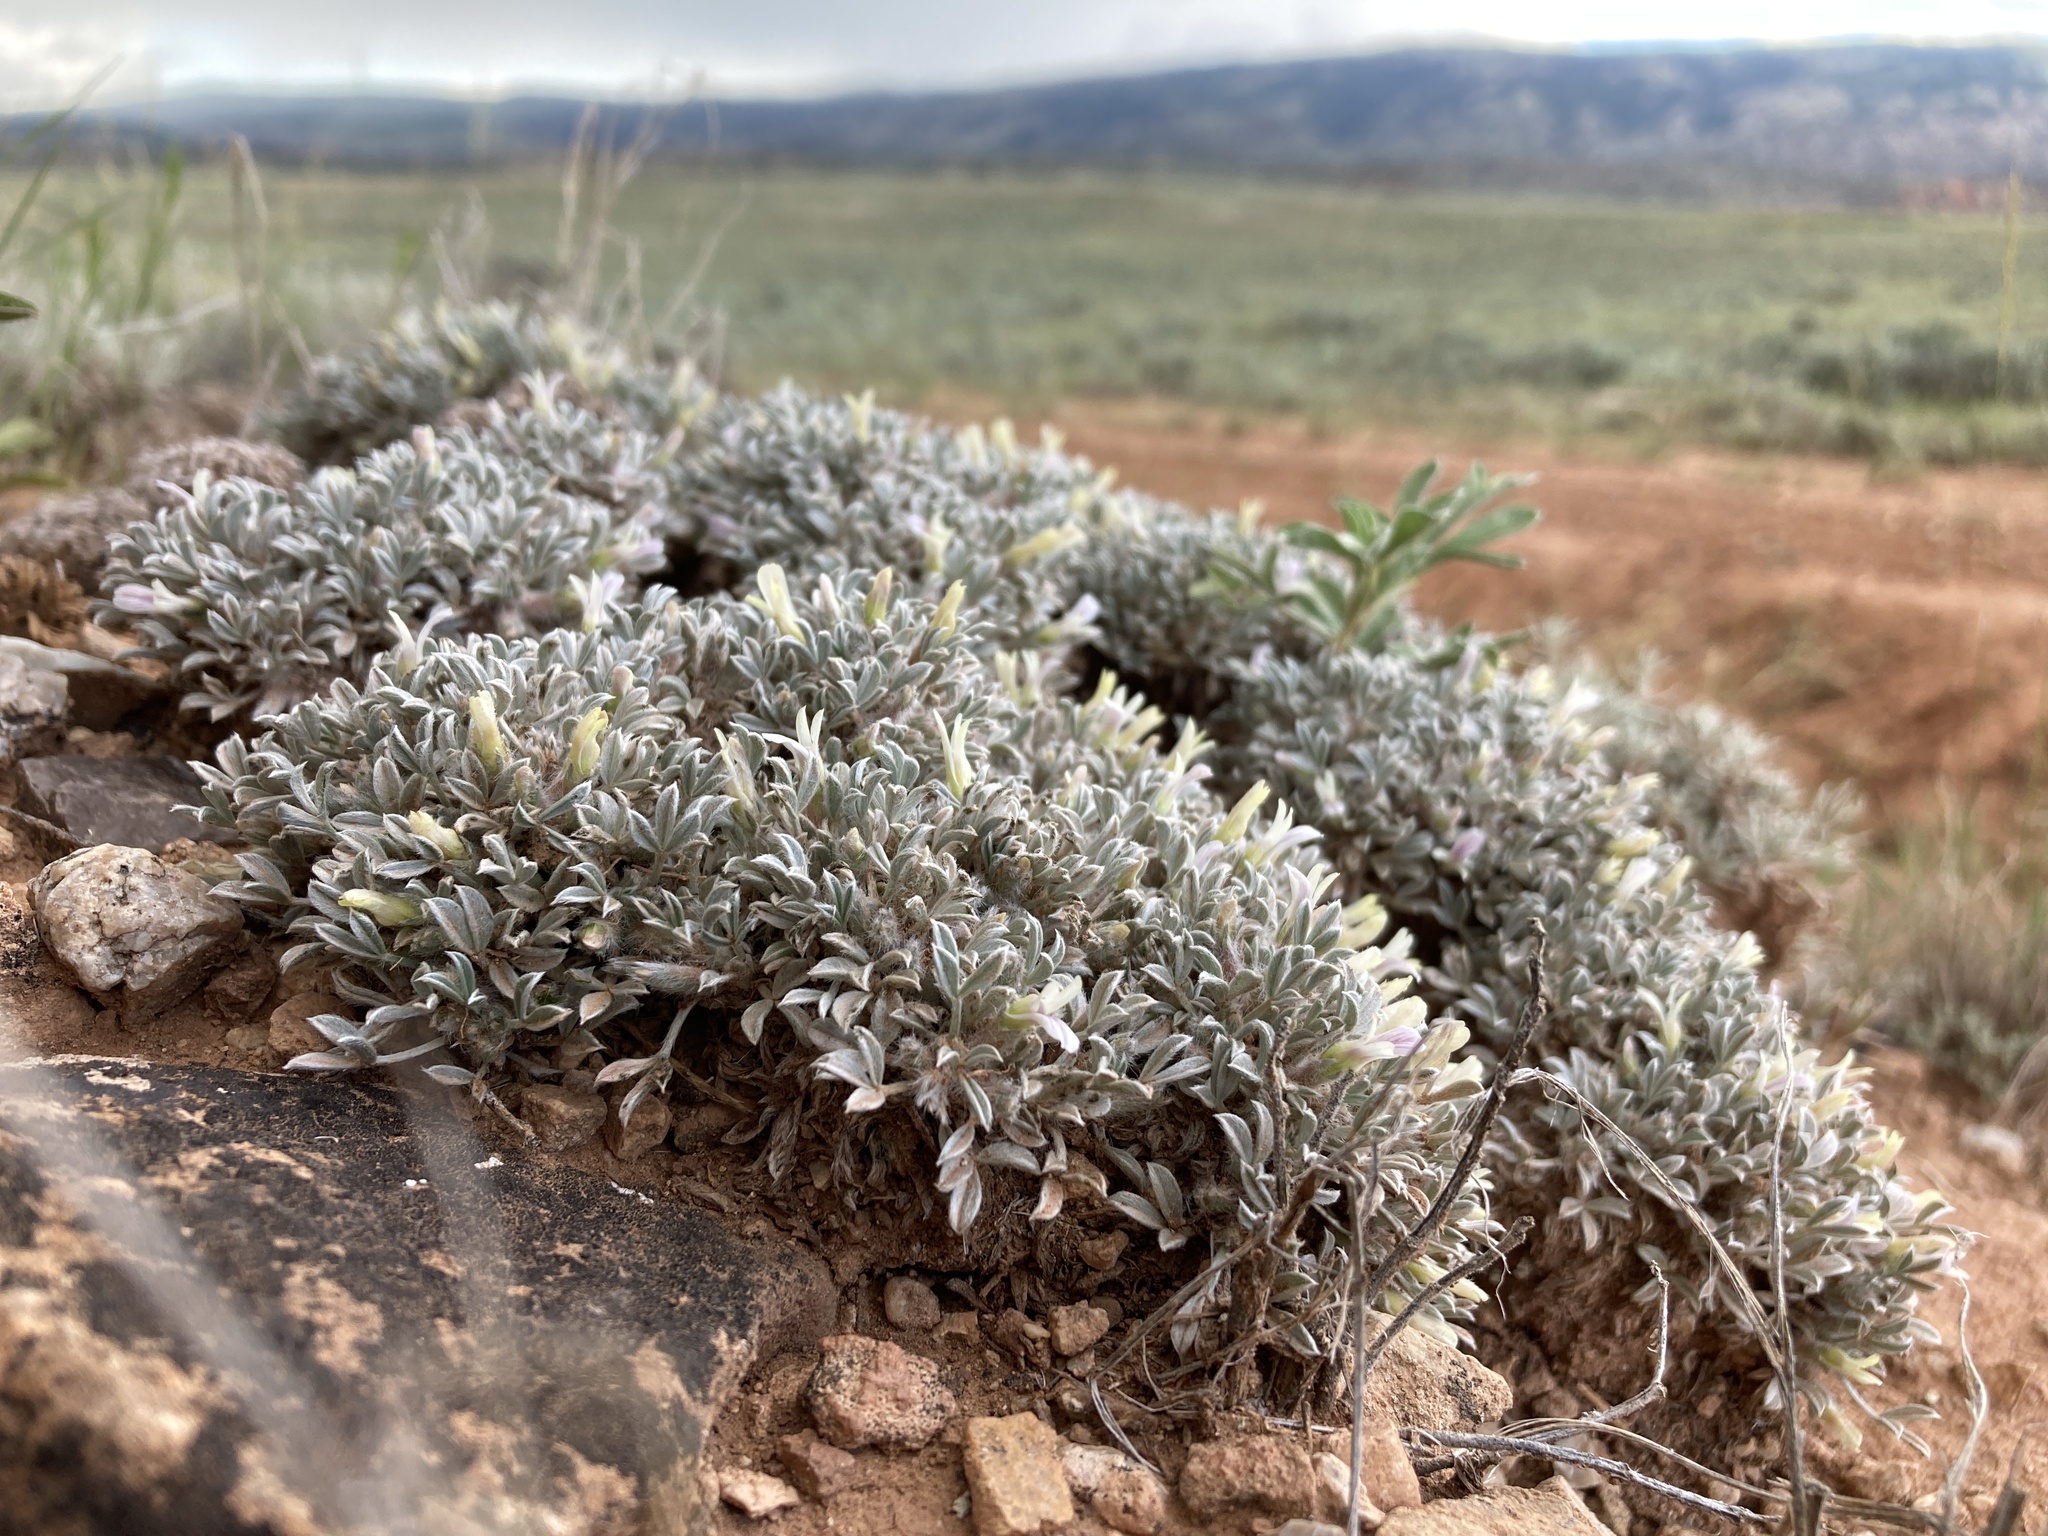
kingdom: Plantae
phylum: Tracheophyta
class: Magnoliopsida
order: Fabales
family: Fabaceae
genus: Astragalus
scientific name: Astragalus hyalinus
